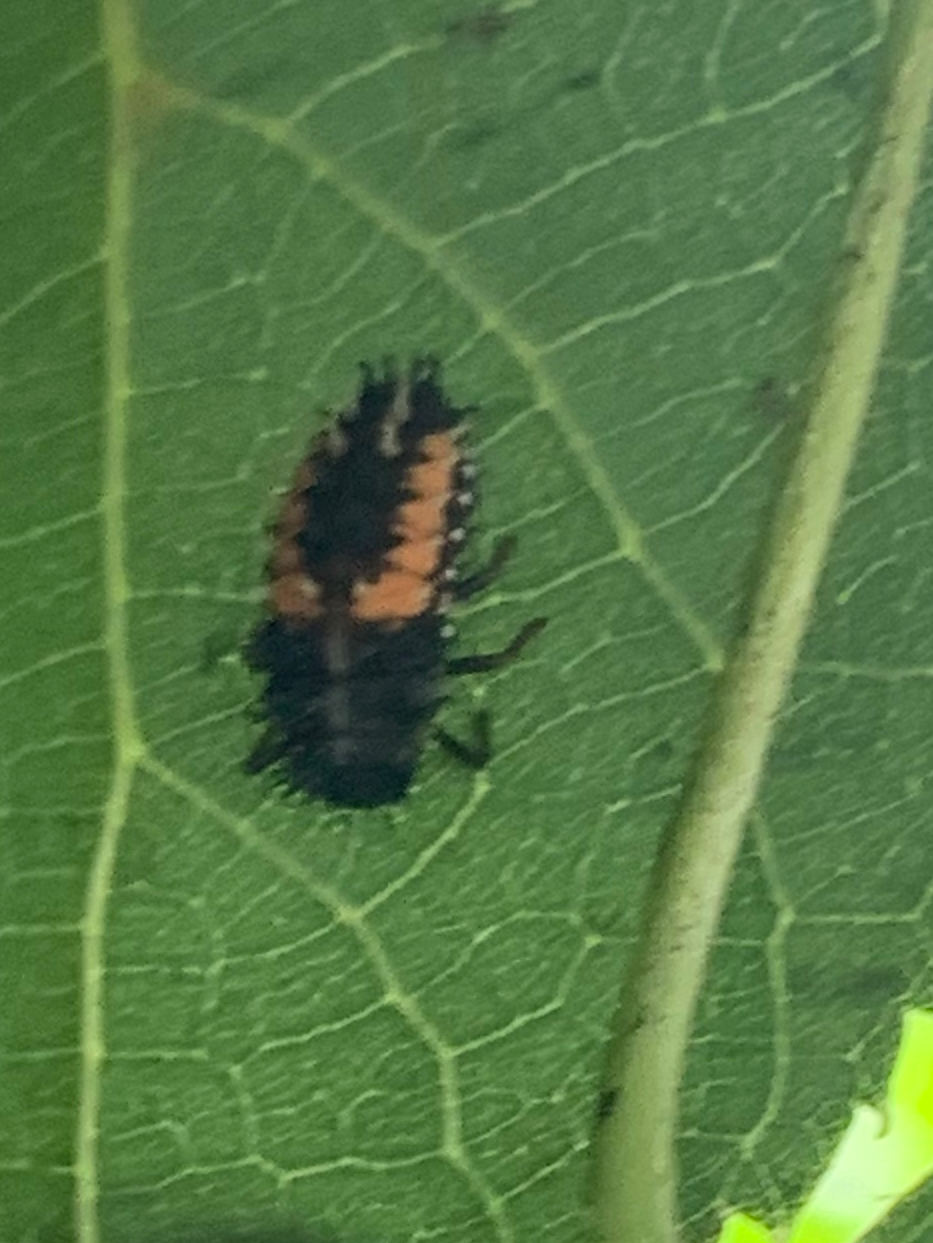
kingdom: Animalia
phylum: Arthropoda
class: Insecta
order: Coleoptera
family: Coccinellidae
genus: Harmonia
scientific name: Harmonia axyridis
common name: Harlequin ladybird
